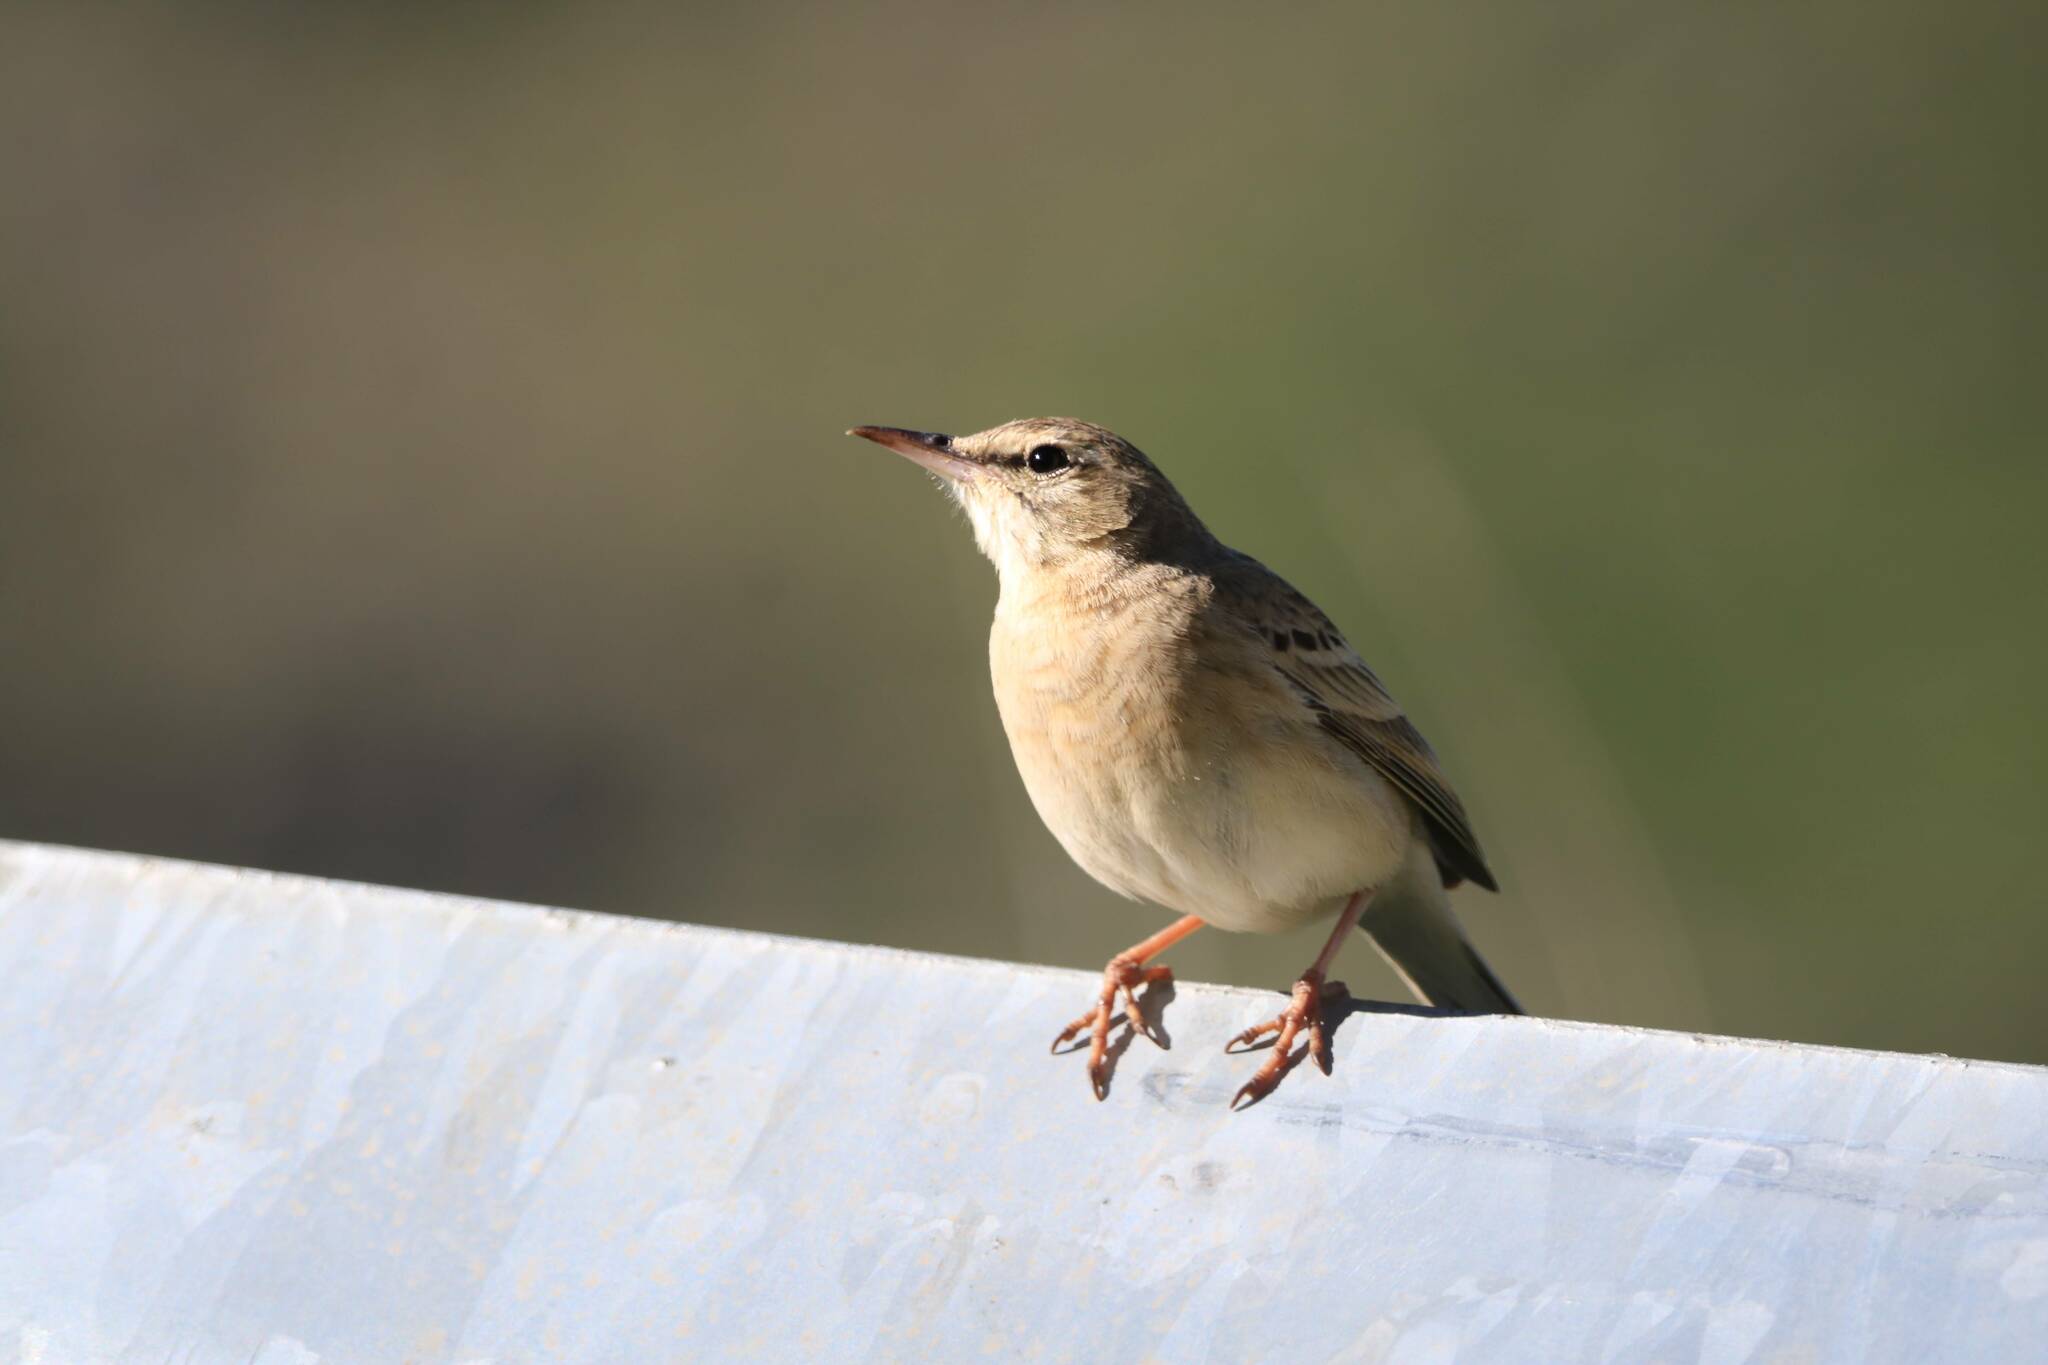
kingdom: Animalia
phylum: Chordata
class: Aves
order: Passeriformes
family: Motacillidae
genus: Anthus
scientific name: Anthus campestris
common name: Tawny pipit
